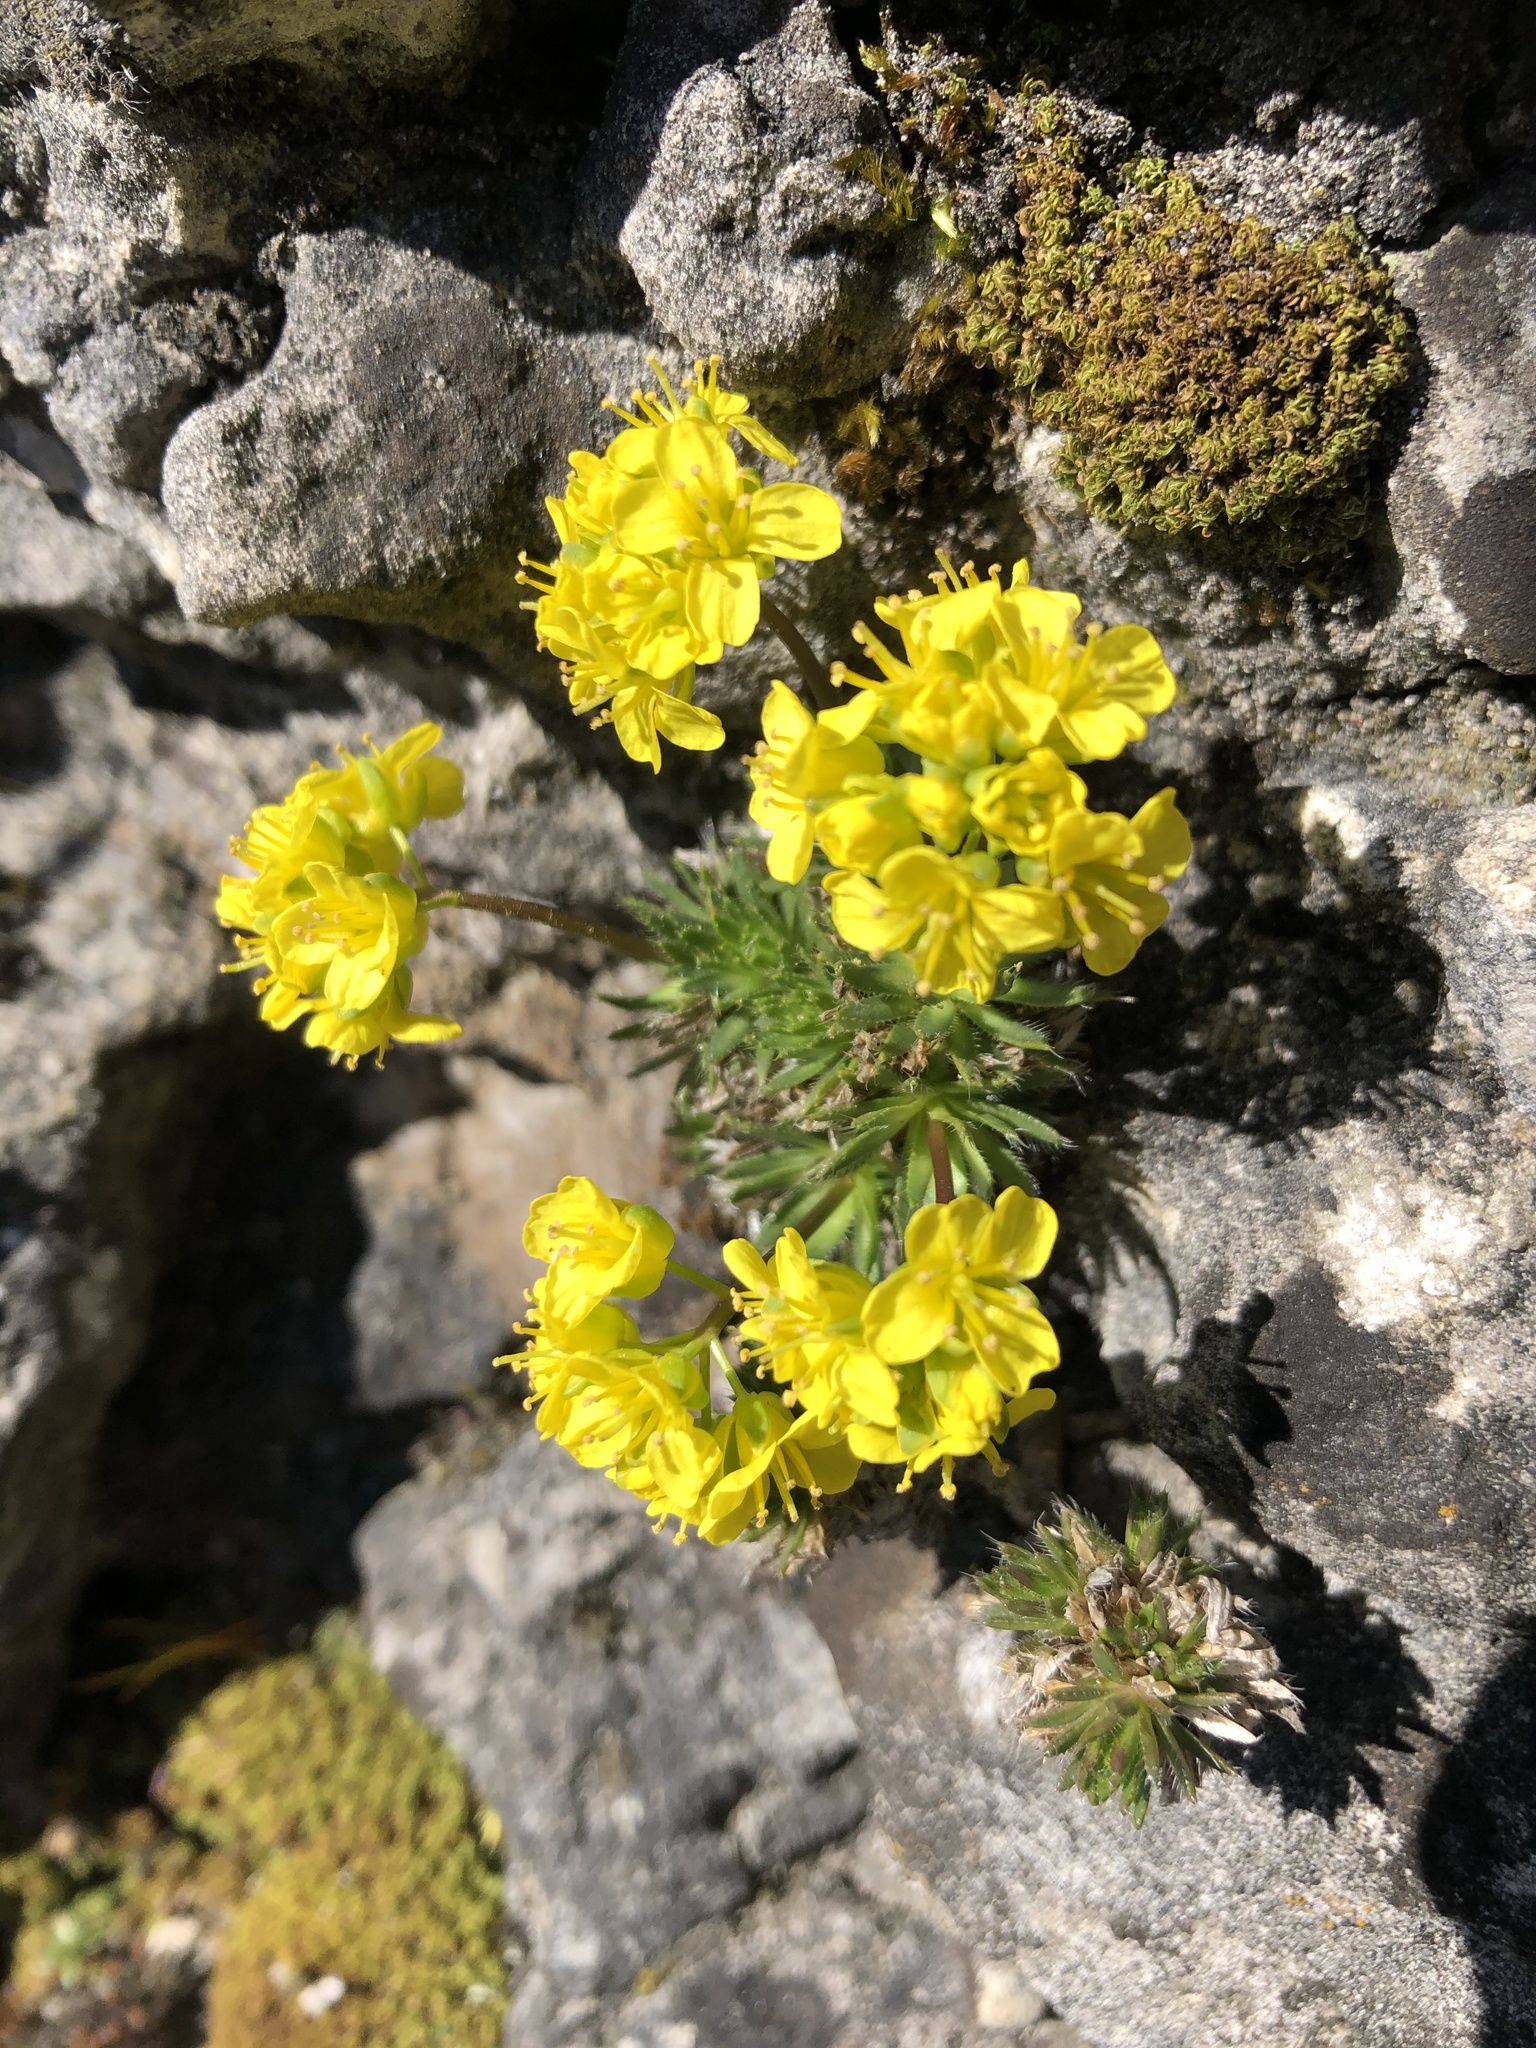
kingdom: Plantae
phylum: Tracheophyta
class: Magnoliopsida
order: Brassicales
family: Brassicaceae
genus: Draba
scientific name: Draba aizoides
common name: Yellow whitlowgrass
